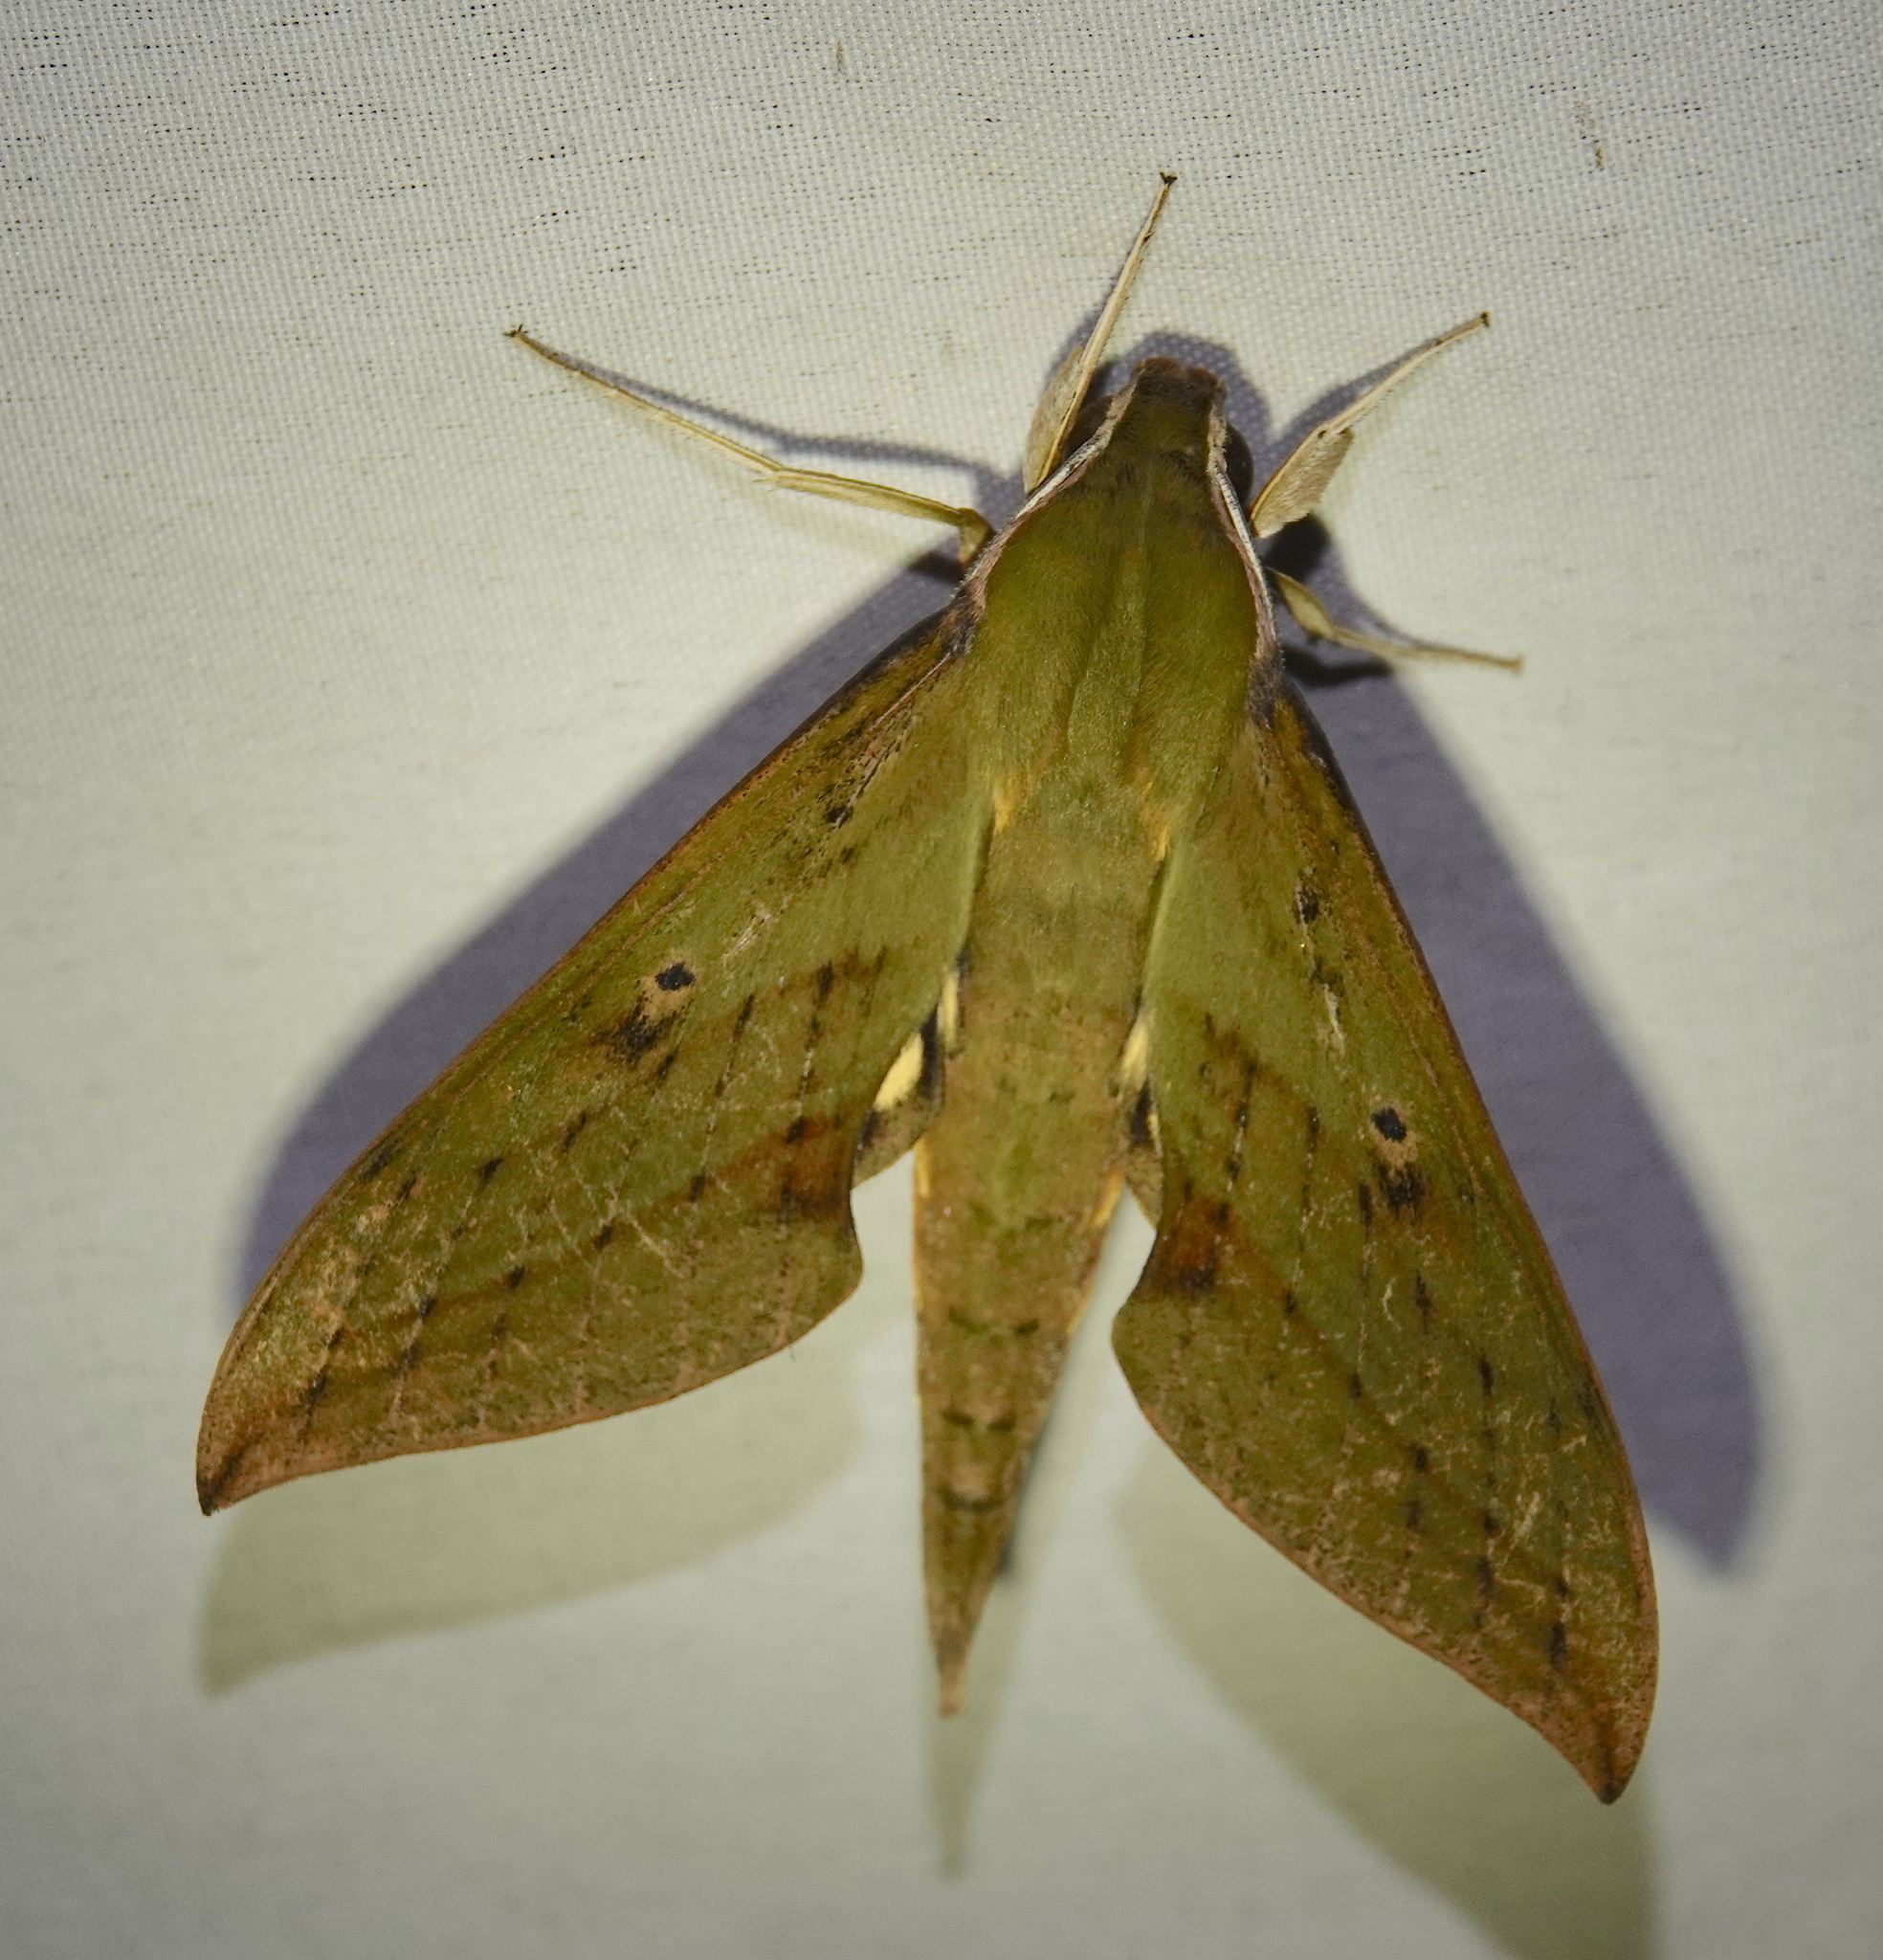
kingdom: Animalia
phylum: Arthropoda
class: Insecta
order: Lepidoptera
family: Sphingidae
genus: Xylophanes
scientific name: Xylophanes crotonis
